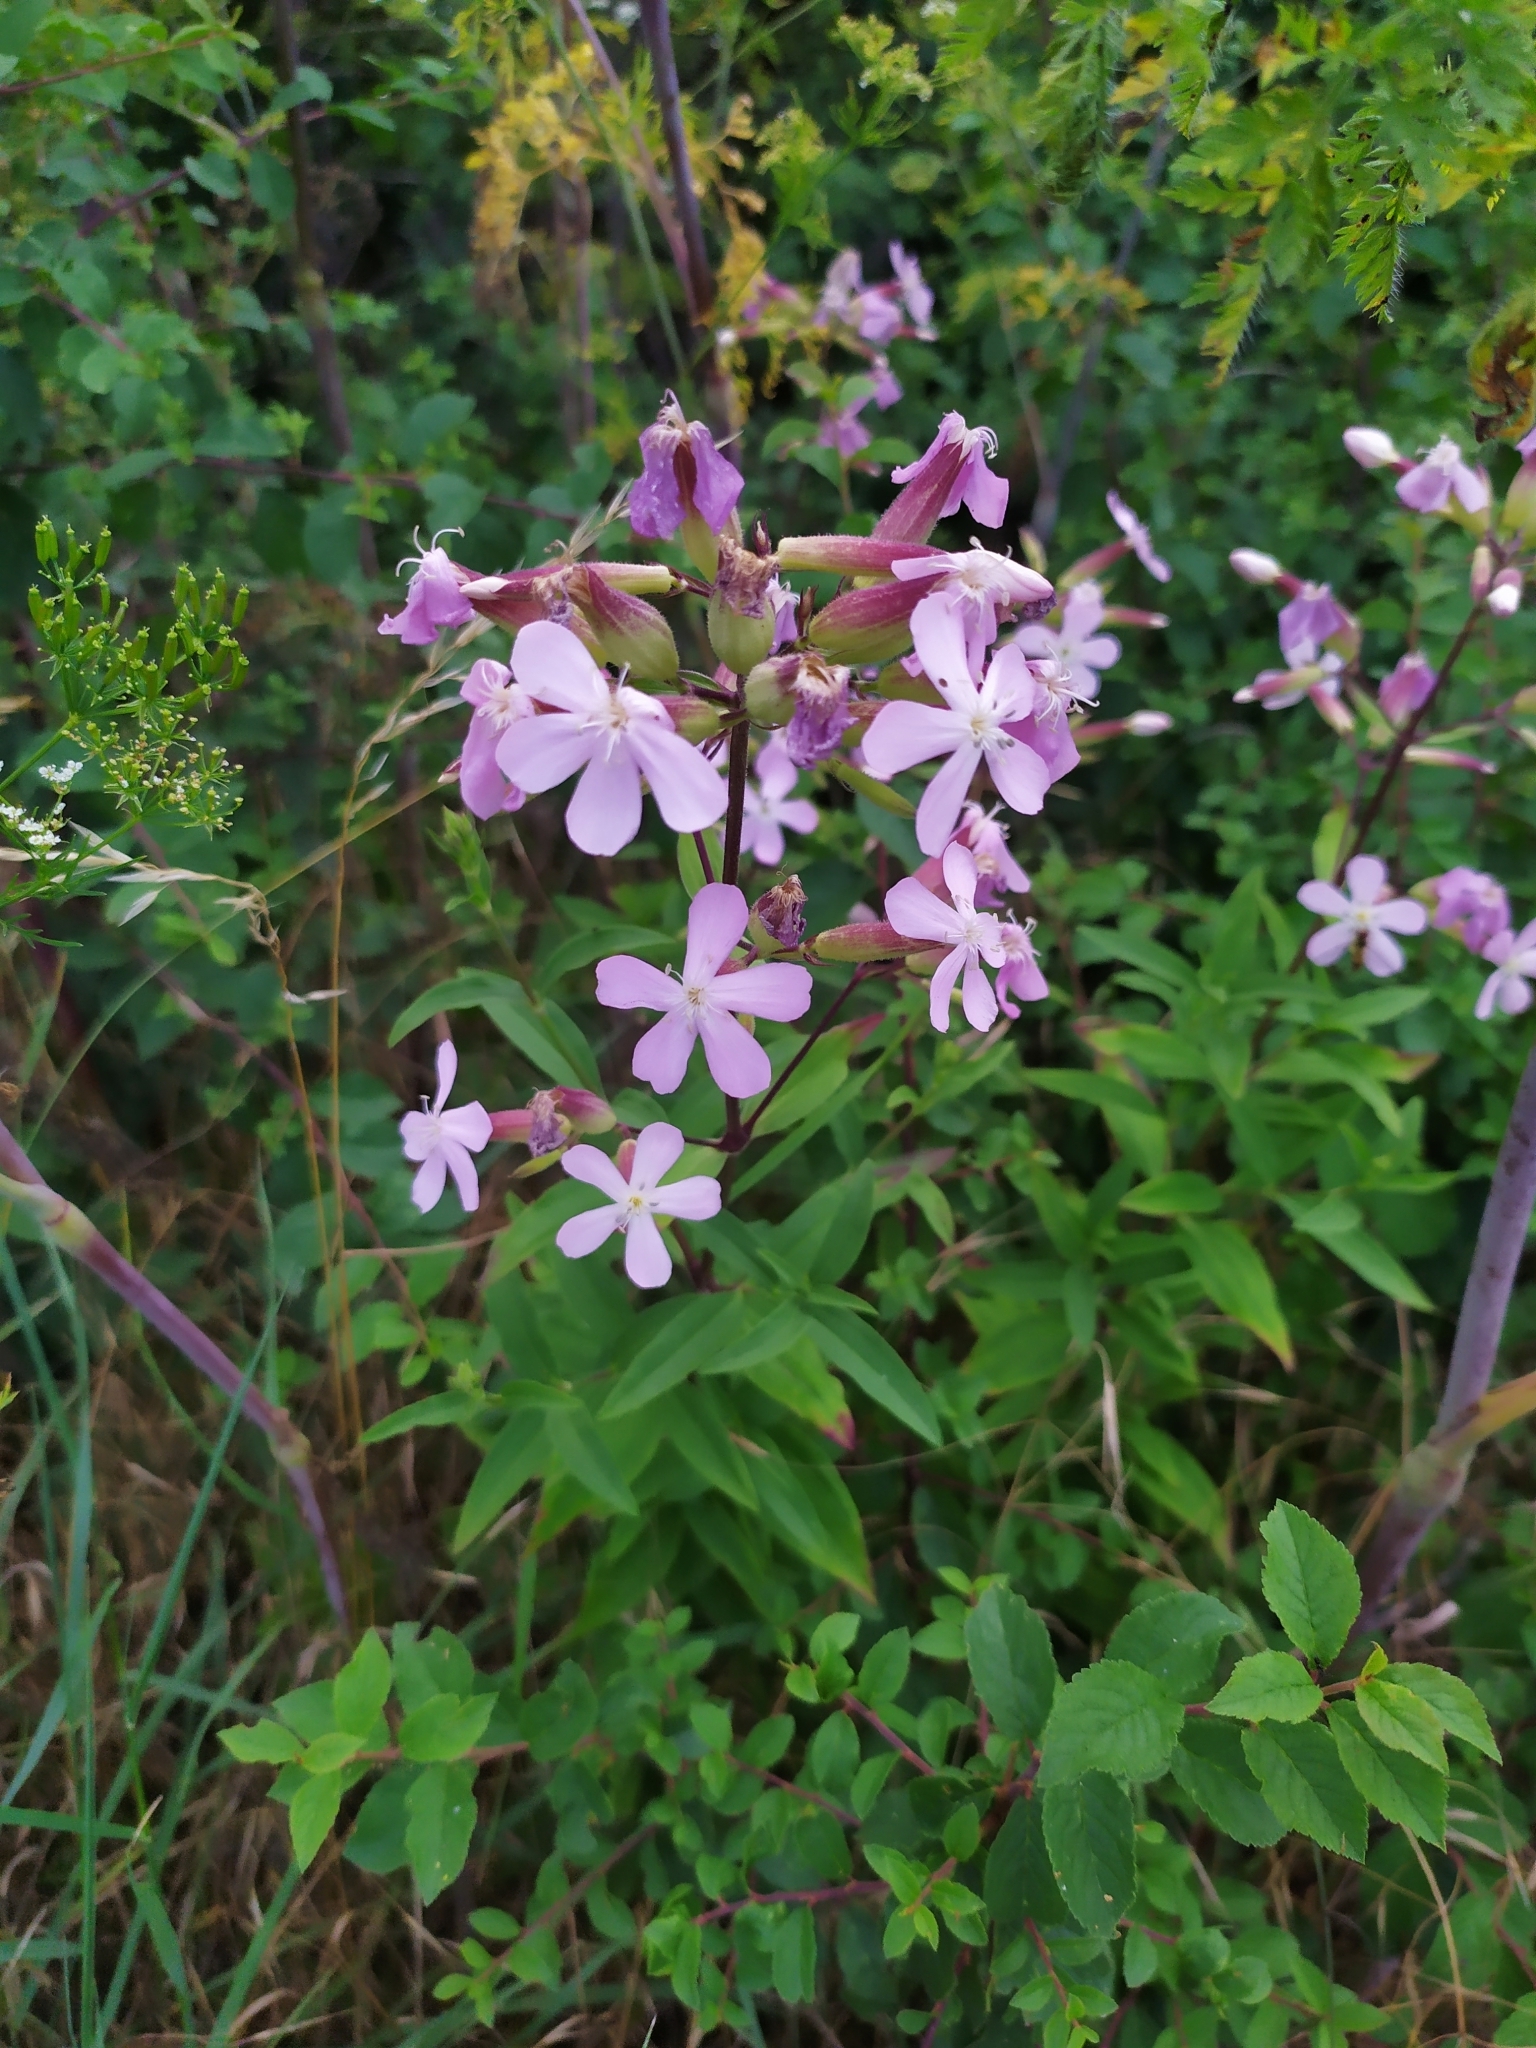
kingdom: Plantae
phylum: Tracheophyta
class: Magnoliopsida
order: Caryophyllales
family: Caryophyllaceae
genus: Saponaria
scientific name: Saponaria officinalis
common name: Soapwort
